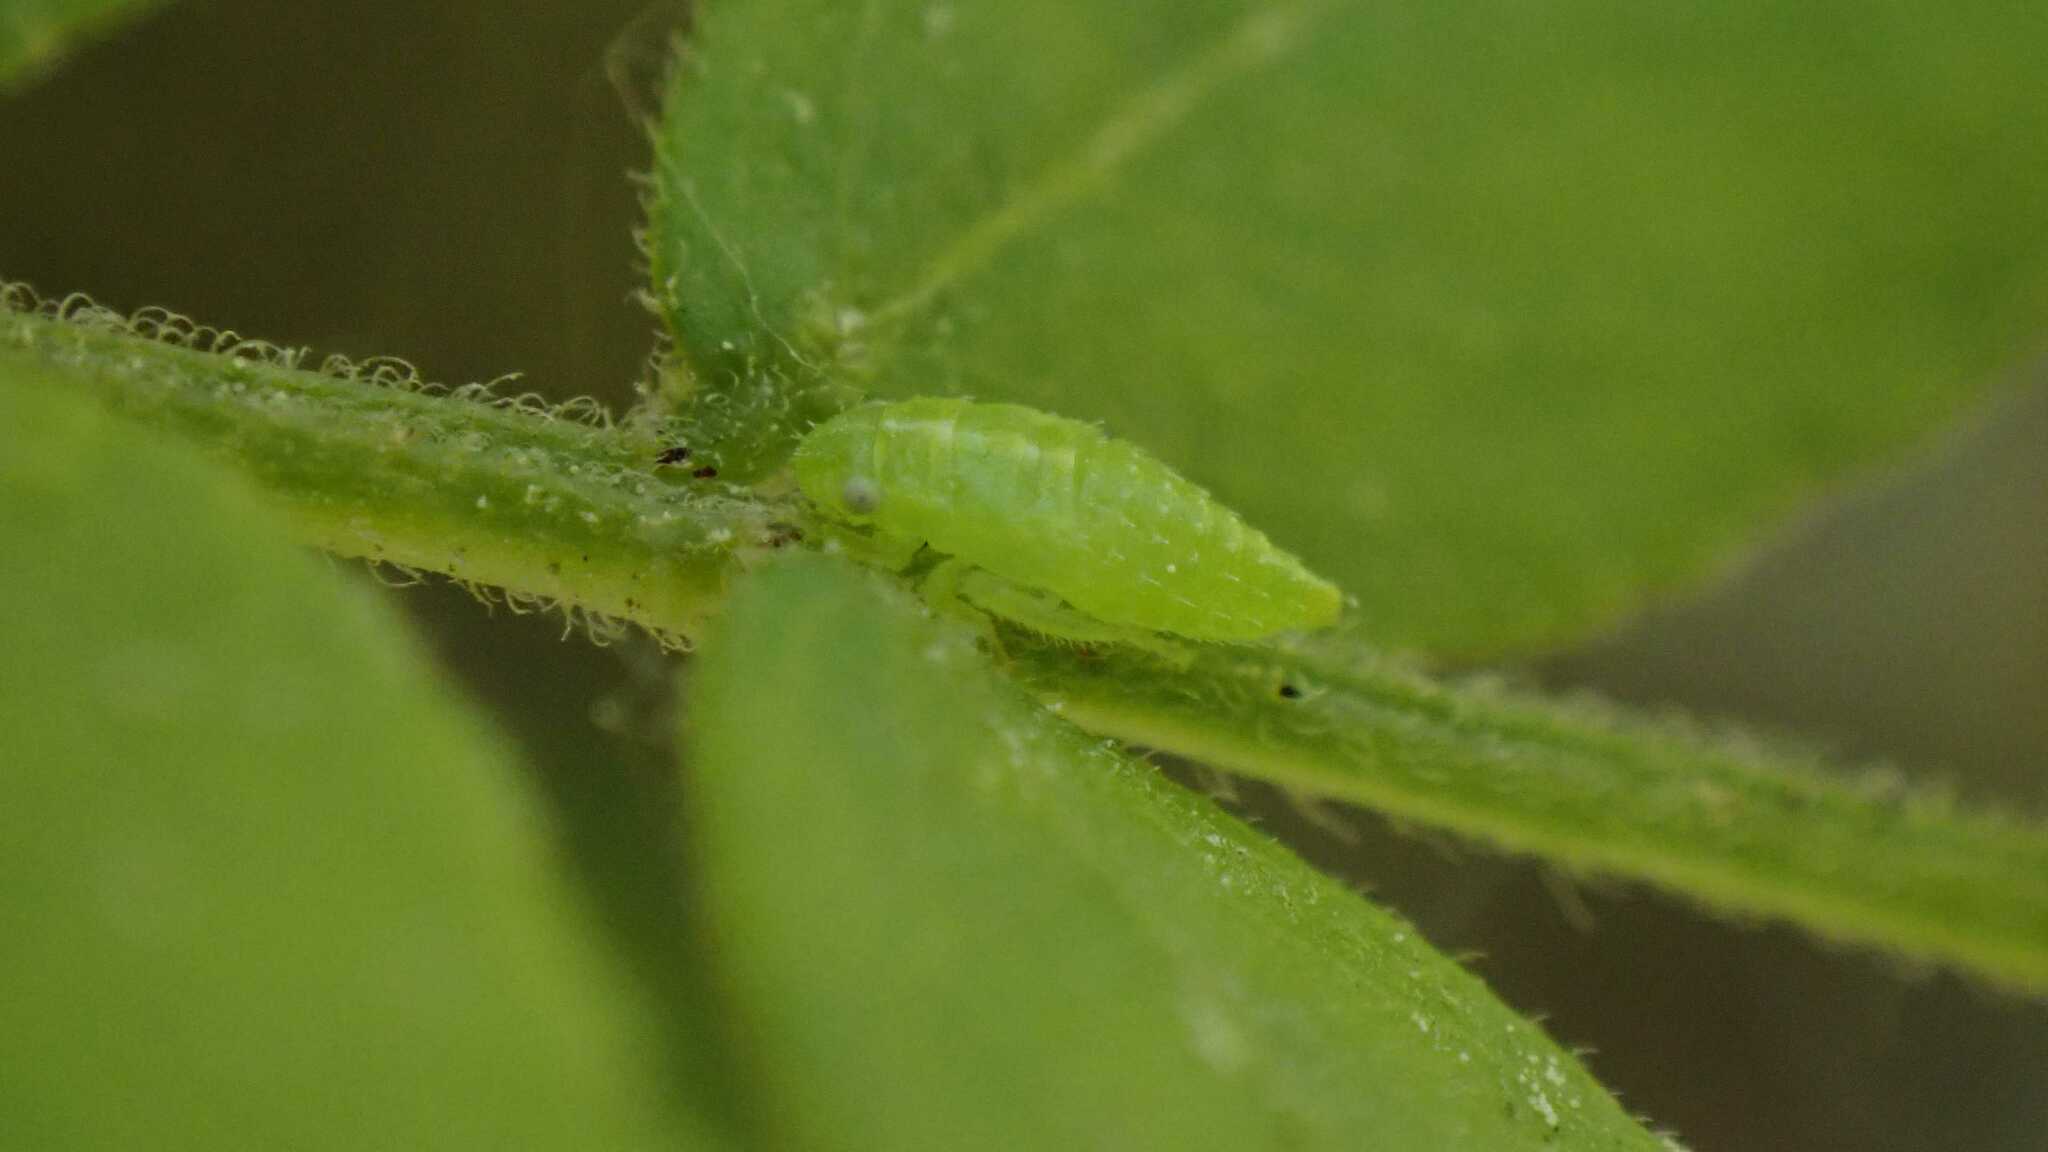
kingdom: Animalia
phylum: Arthropoda
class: Insecta
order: Hemiptera
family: Cicadellidae
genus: Stragania
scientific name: Stragania apicalis
